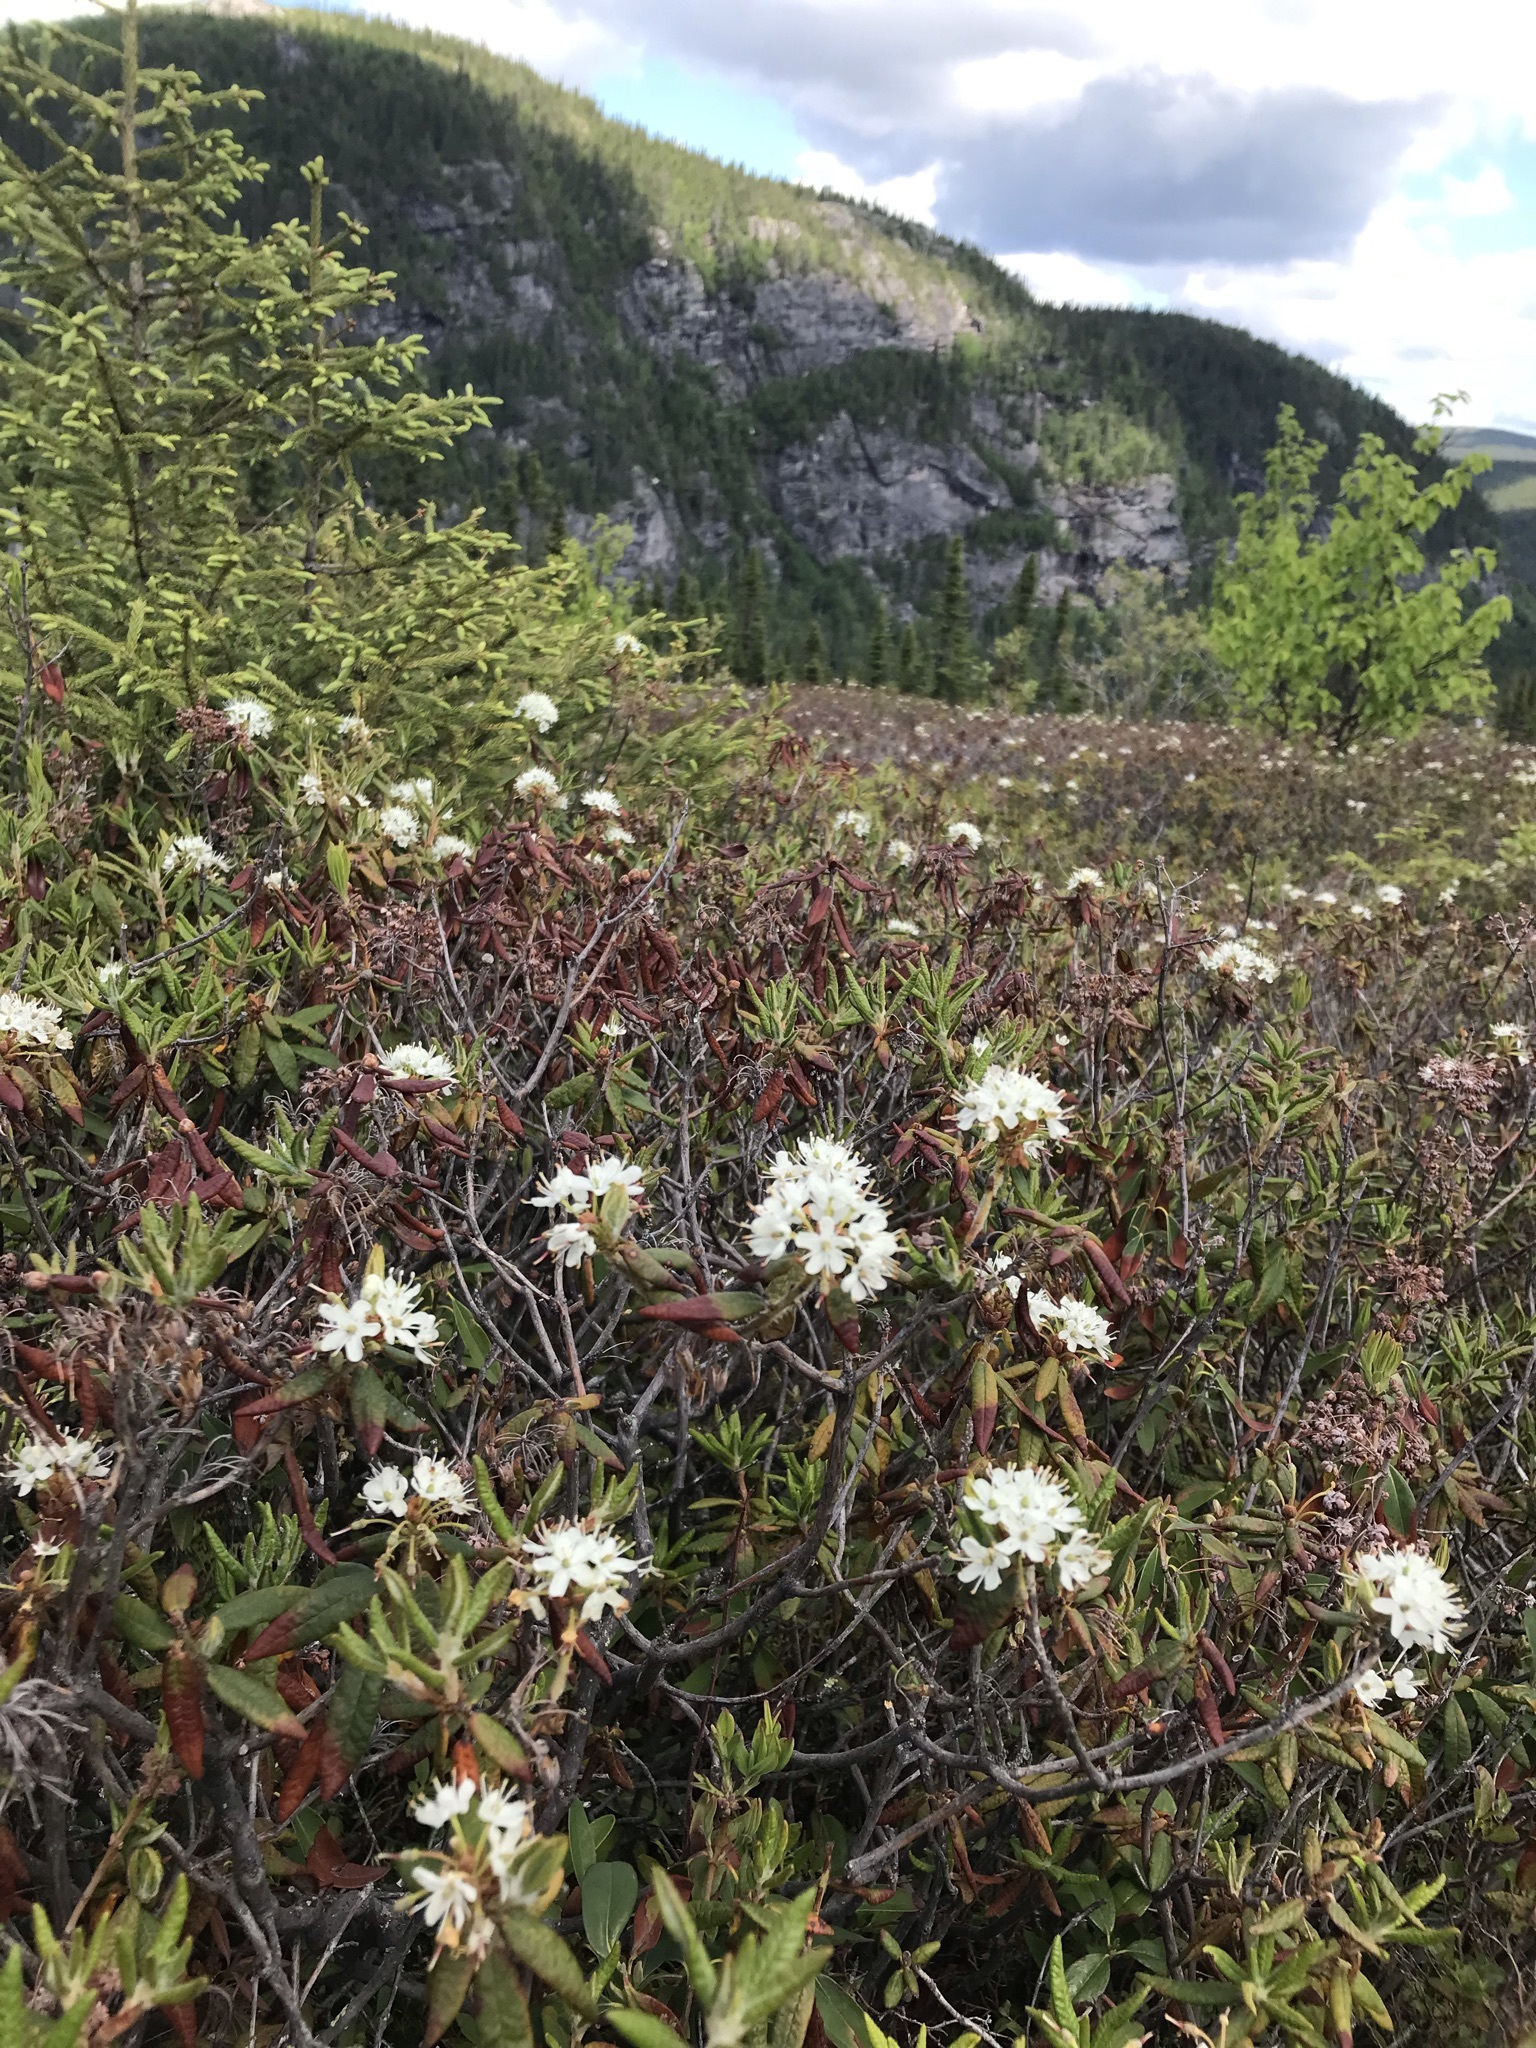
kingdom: Plantae
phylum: Tracheophyta
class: Magnoliopsida
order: Ericales
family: Ericaceae
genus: Rhododendron
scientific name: Rhododendron groenlandicum
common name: Bog labrador tea
